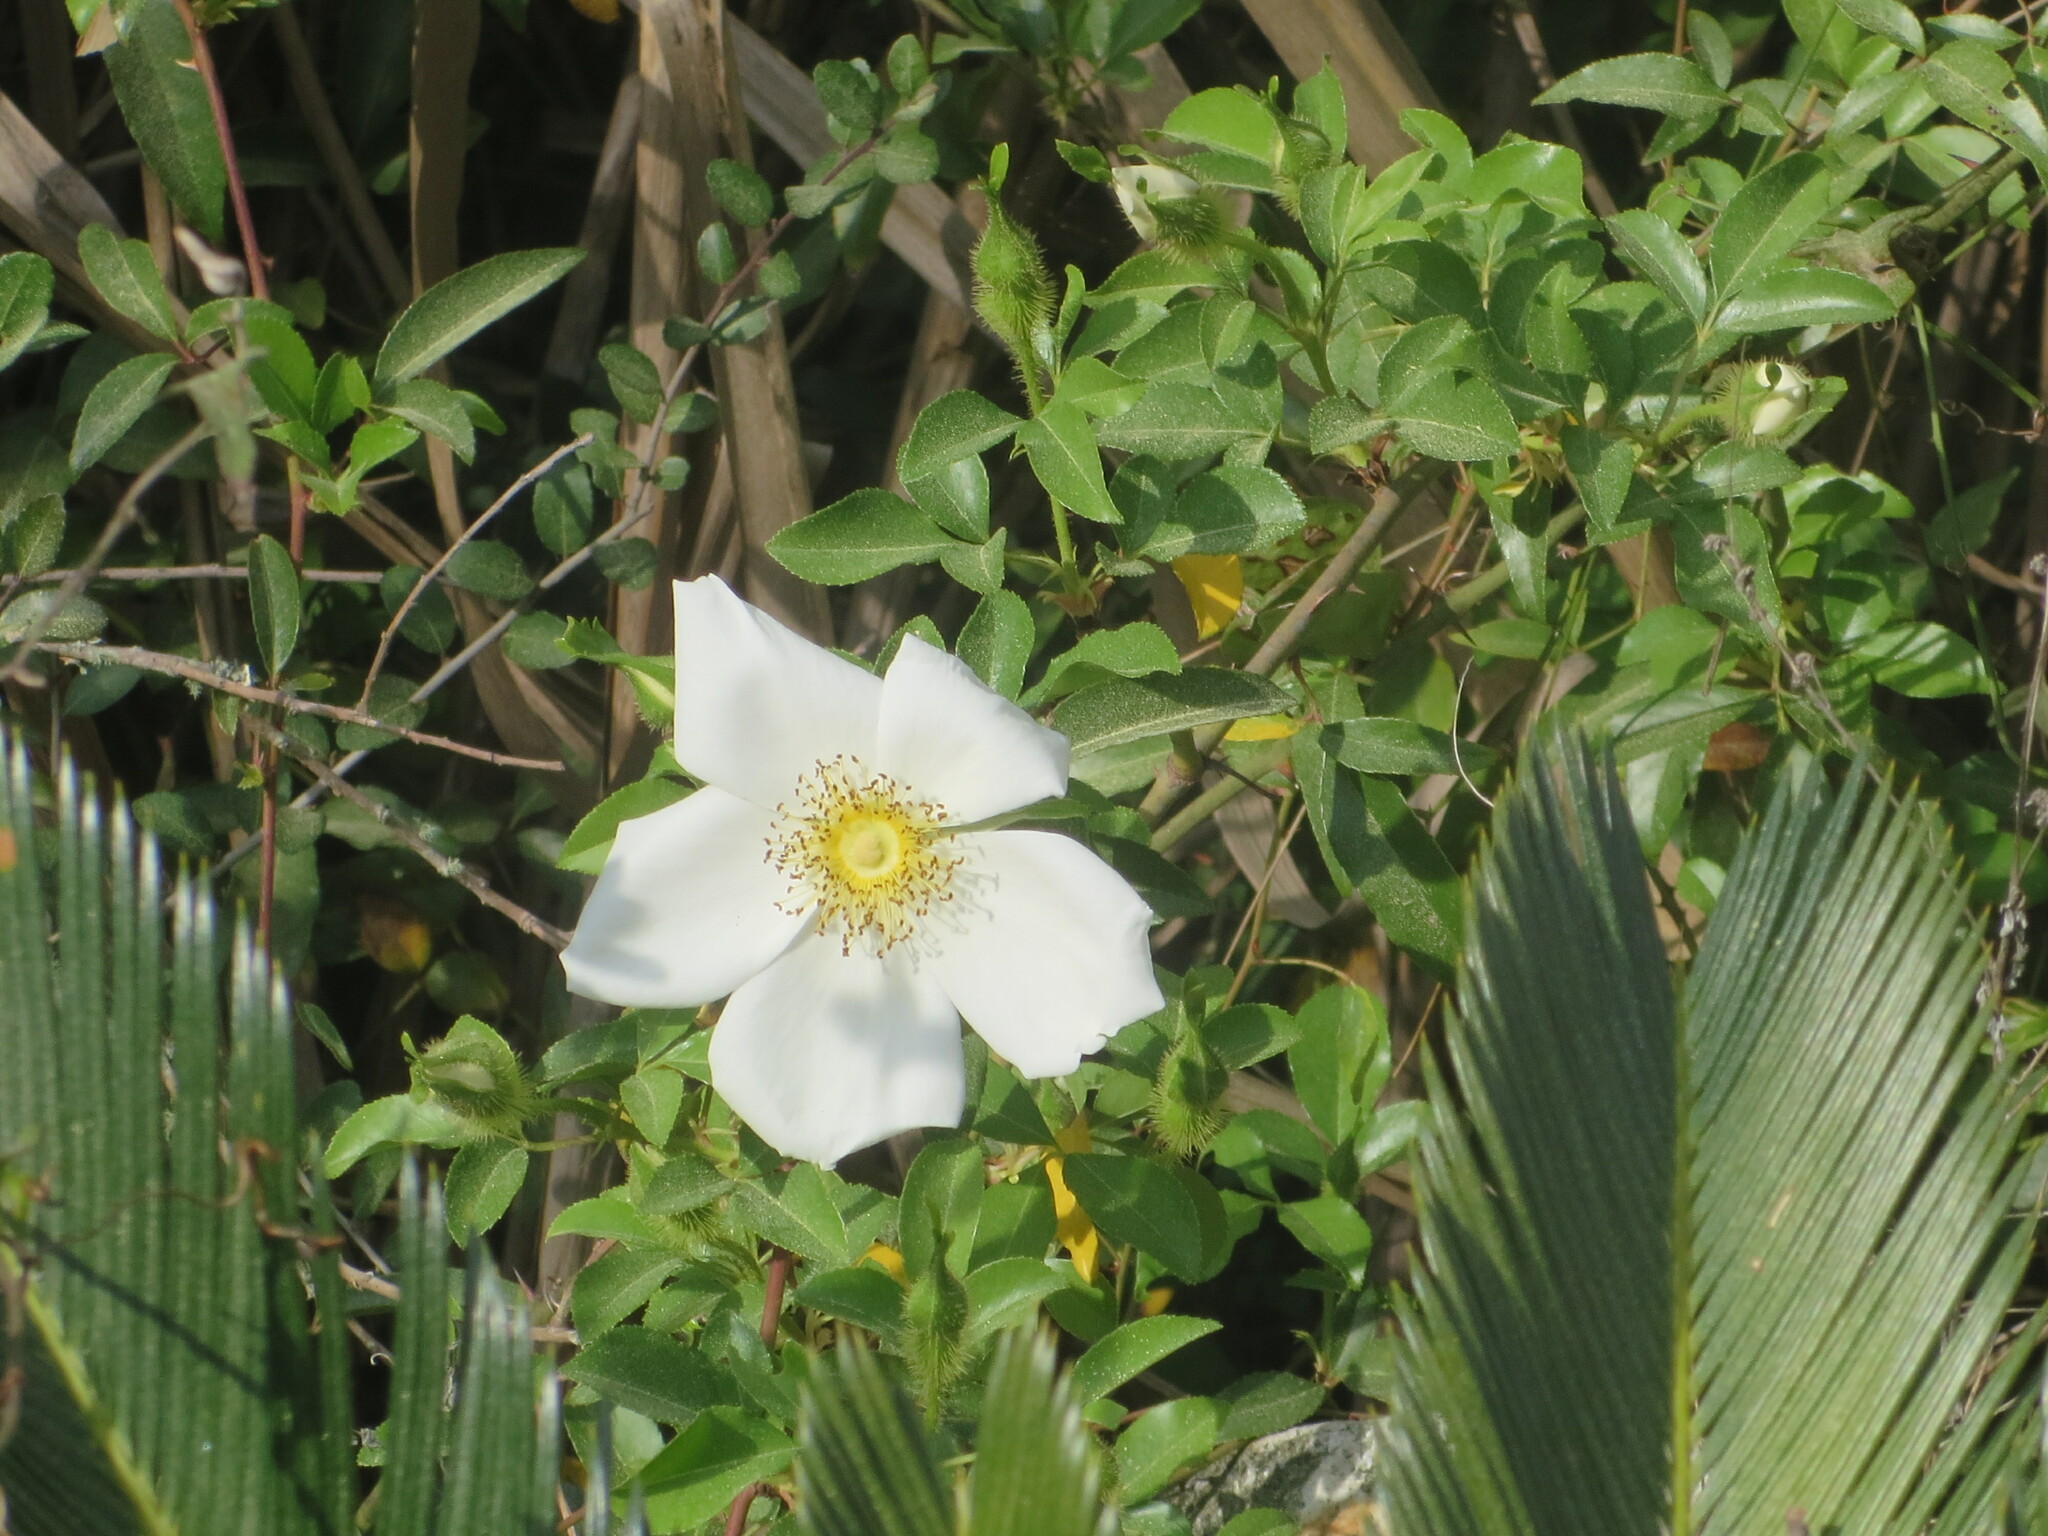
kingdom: Plantae
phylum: Tracheophyta
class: Magnoliopsida
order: Rosales
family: Rosaceae
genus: Rosa
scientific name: Rosa laevigata
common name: Cherokee rose
